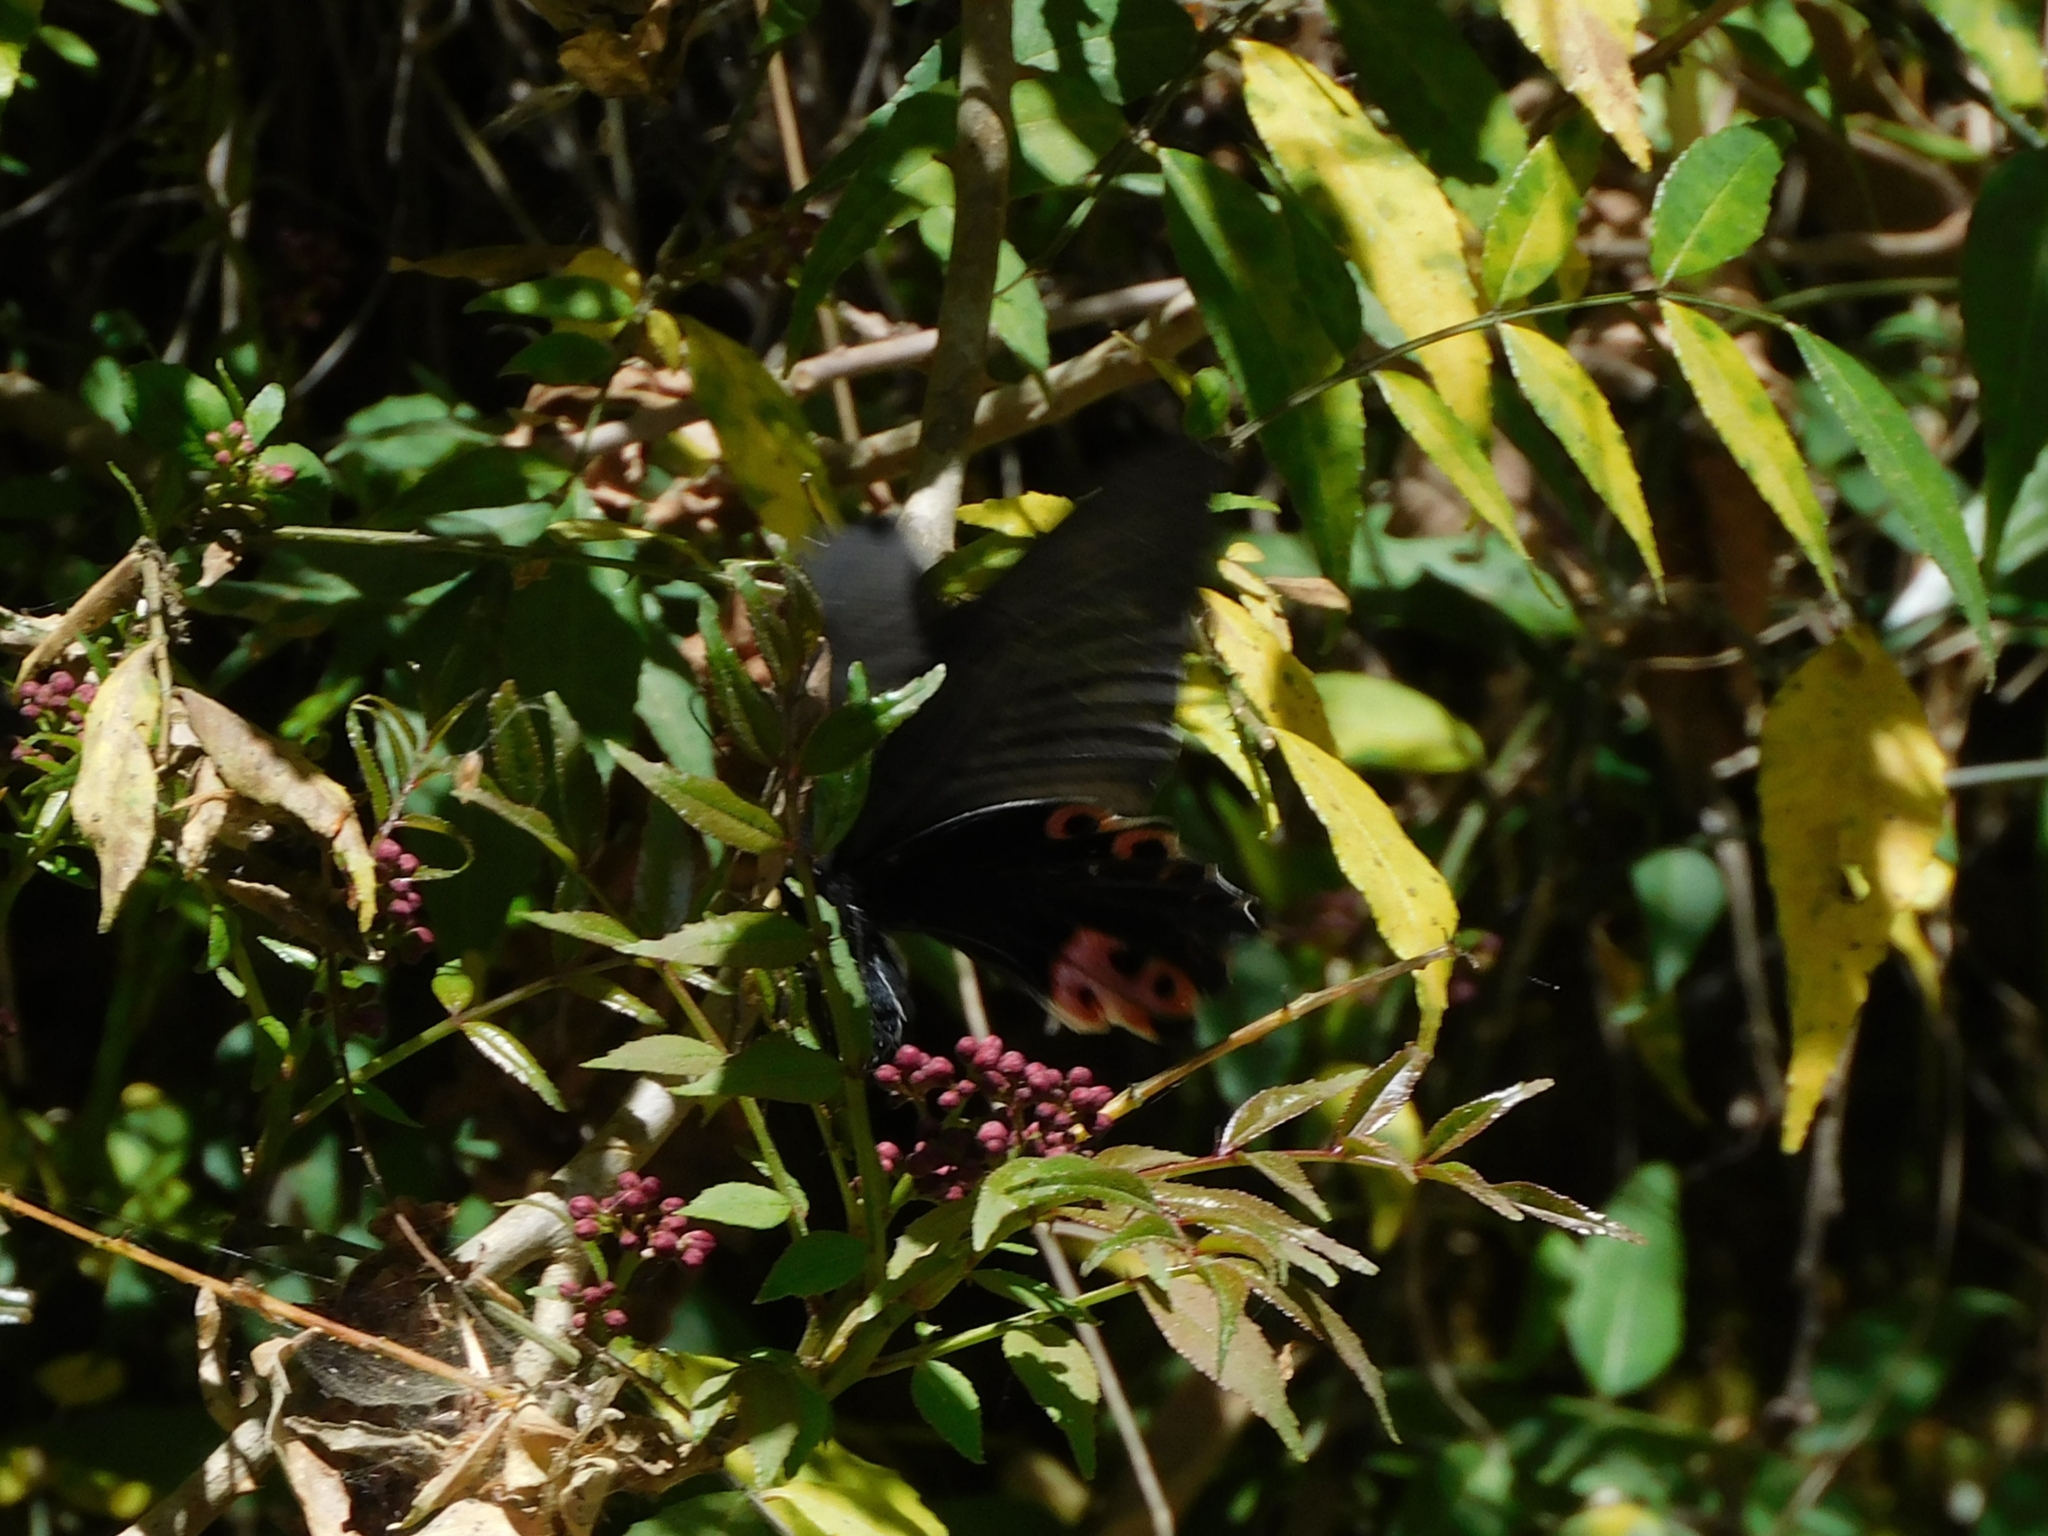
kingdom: Animalia
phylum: Arthropoda
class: Insecta
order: Lepidoptera
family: Papilionidae
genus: Papilio
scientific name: Papilio protenor
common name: Spangle
